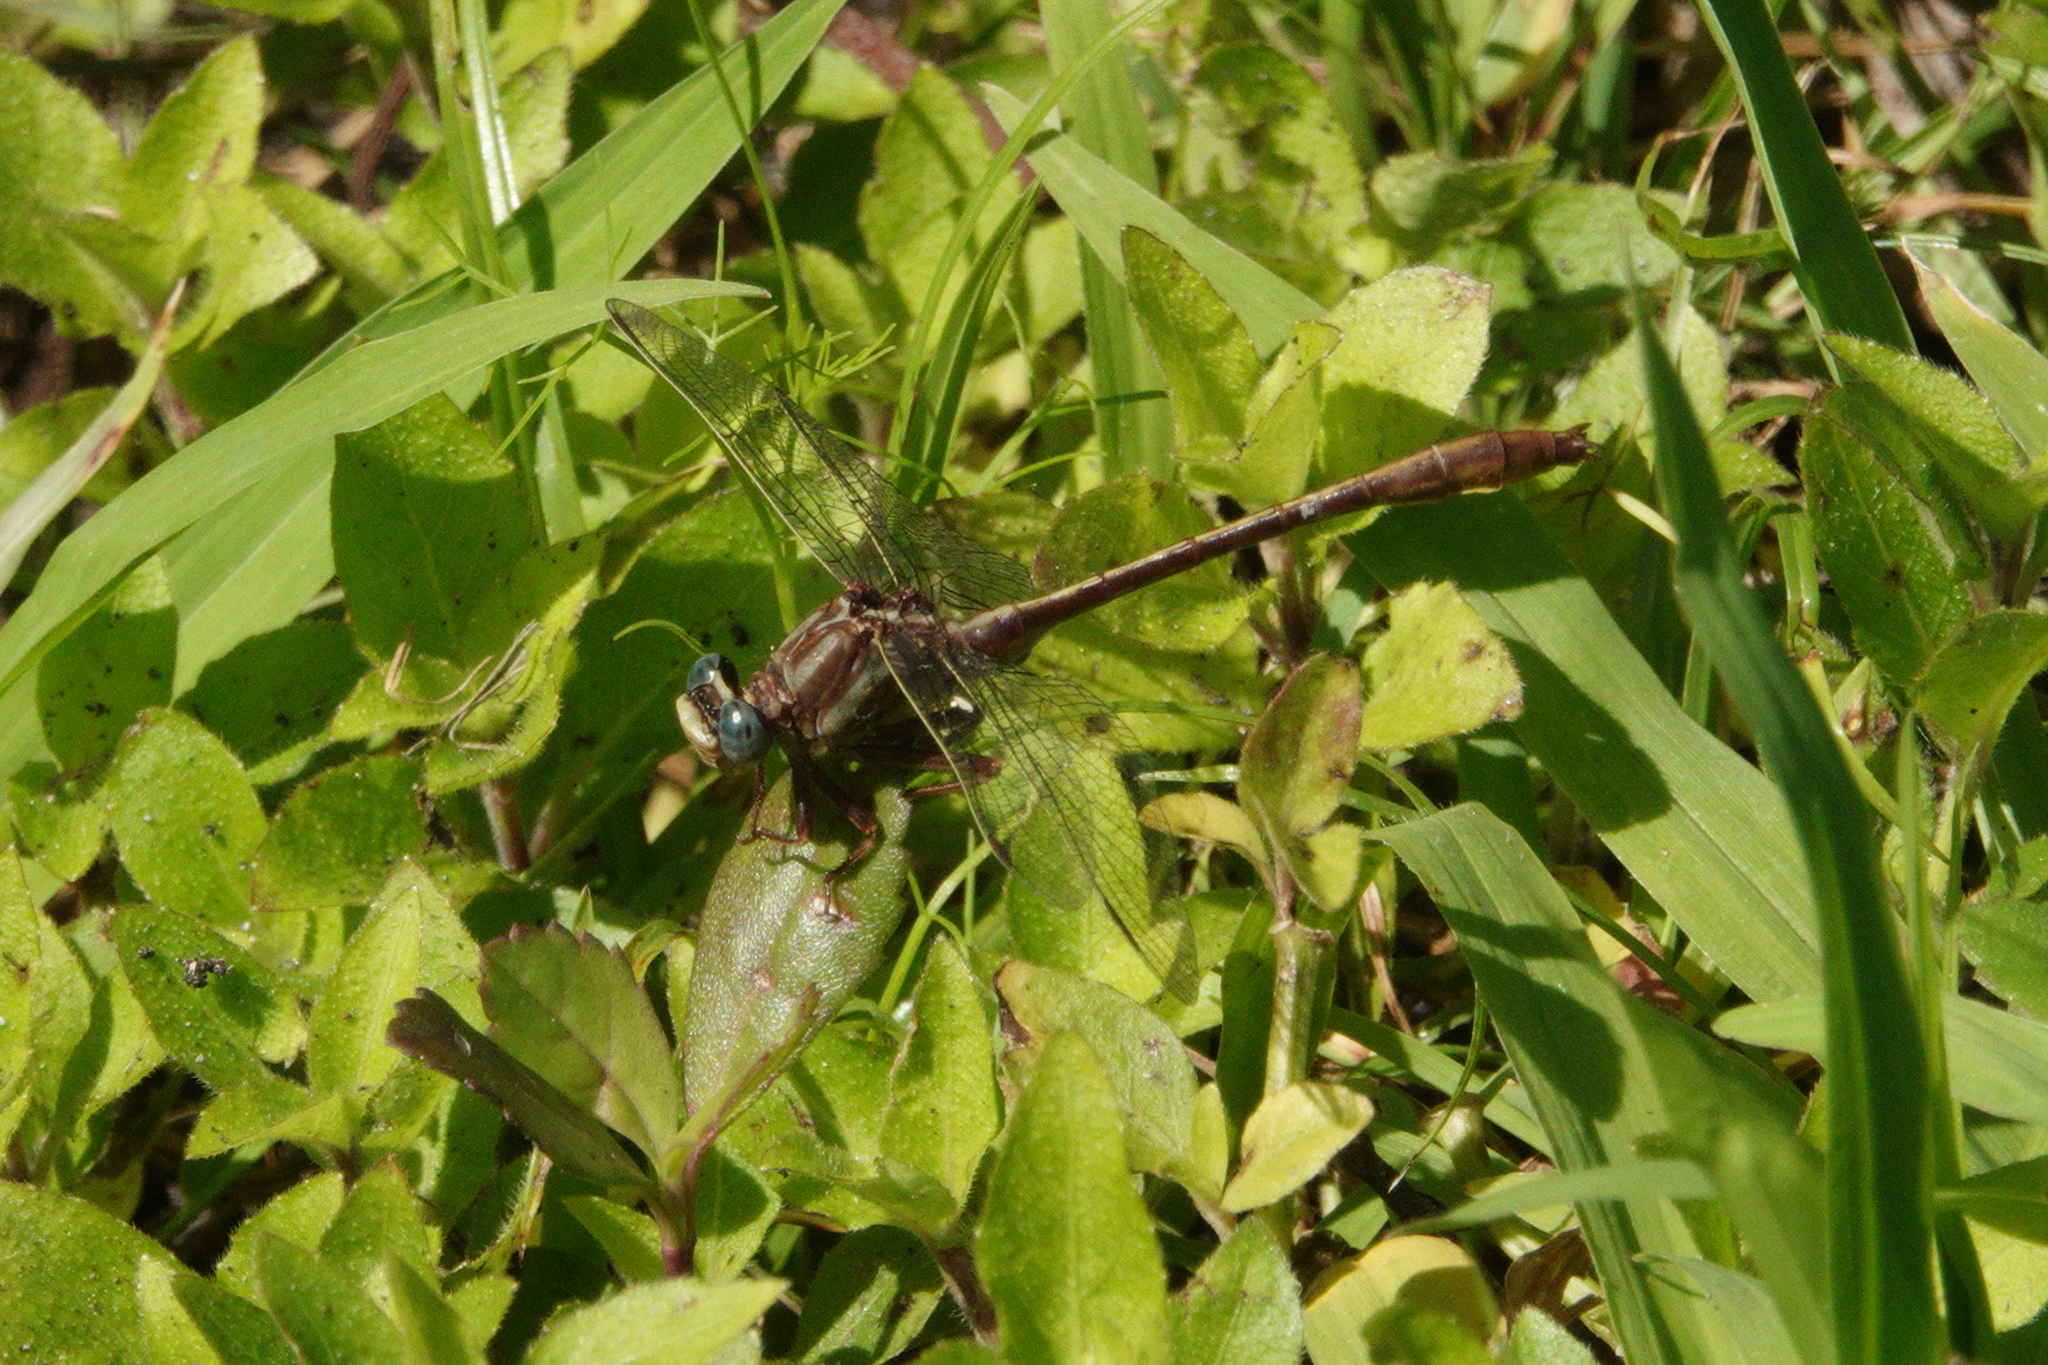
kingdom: Animalia
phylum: Arthropoda
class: Insecta
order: Odonata
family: Gomphidae
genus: Phanogomphus
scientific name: Phanogomphus minutus
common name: Cypress clubtail
